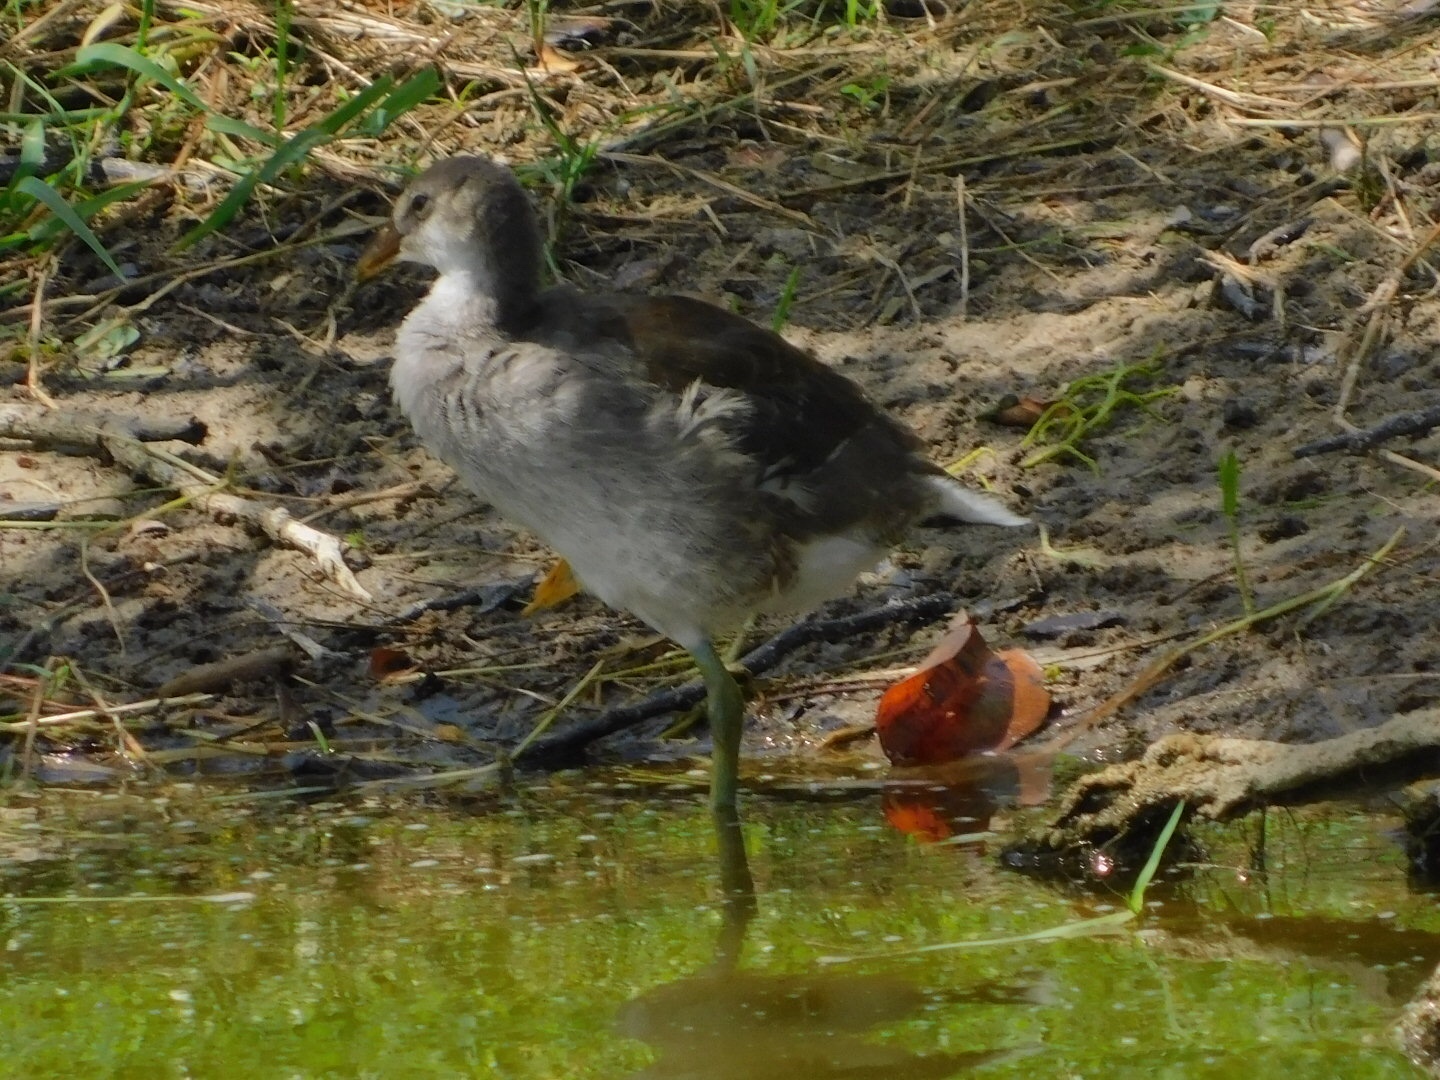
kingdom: Animalia
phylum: Chordata
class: Aves
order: Gruiformes
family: Rallidae
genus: Gallinula
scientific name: Gallinula chloropus
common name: Common moorhen
